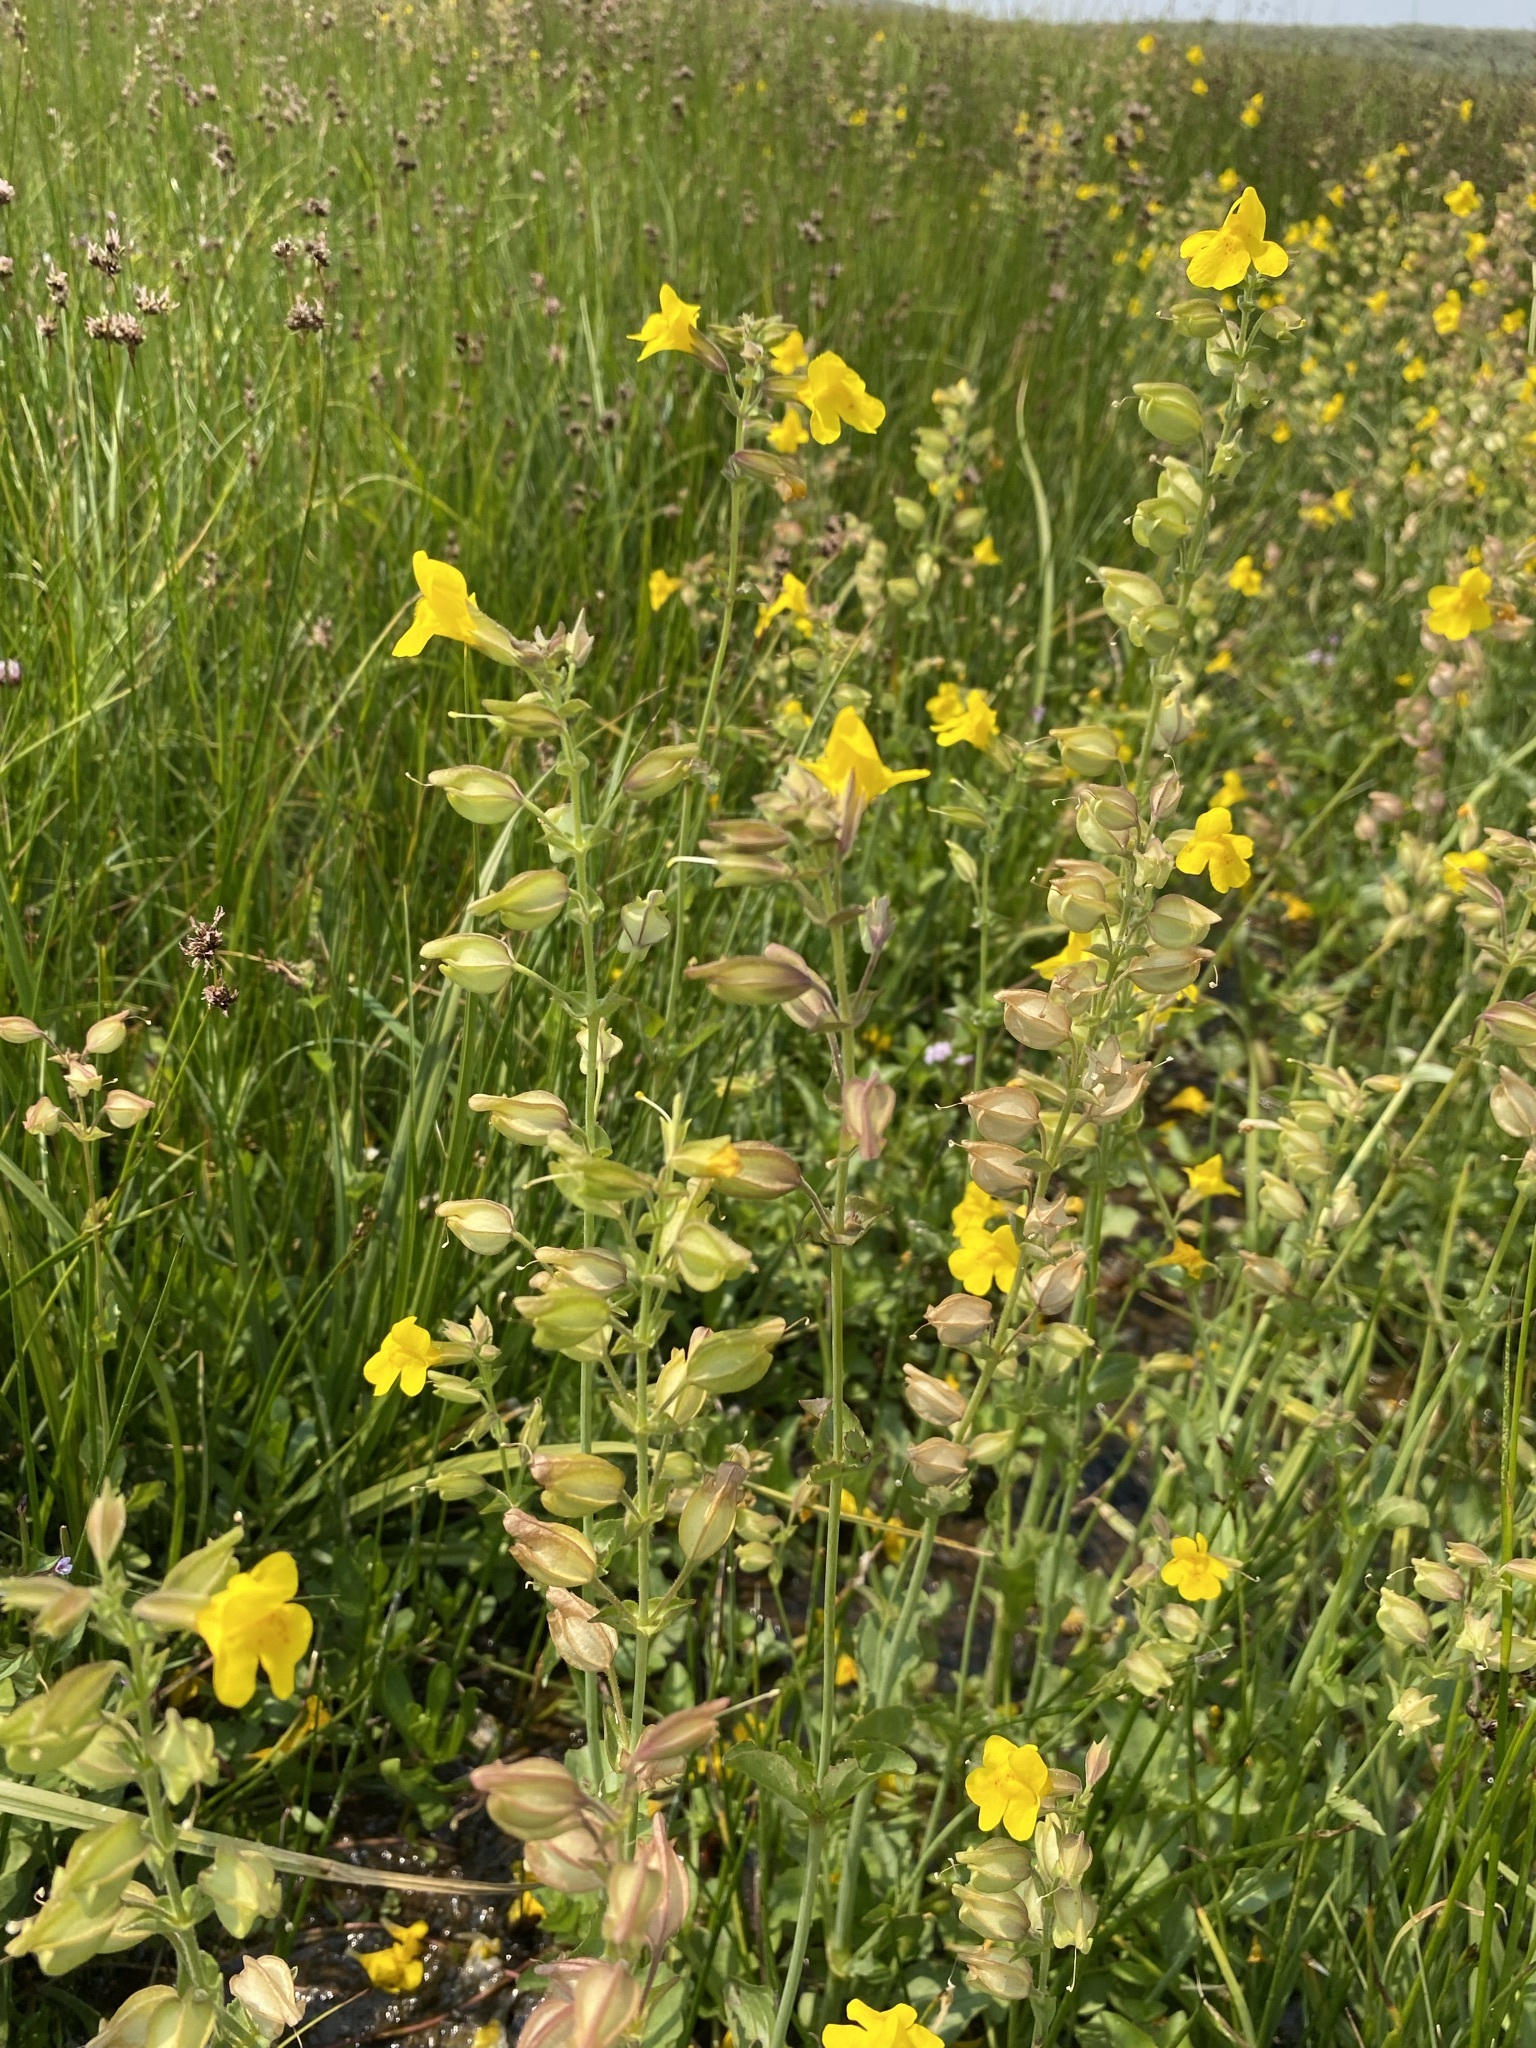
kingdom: Plantae
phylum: Tracheophyta
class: Magnoliopsida
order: Lamiales
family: Phrymaceae
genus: Erythranthe
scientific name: Erythranthe guttata
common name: Monkeyflower
